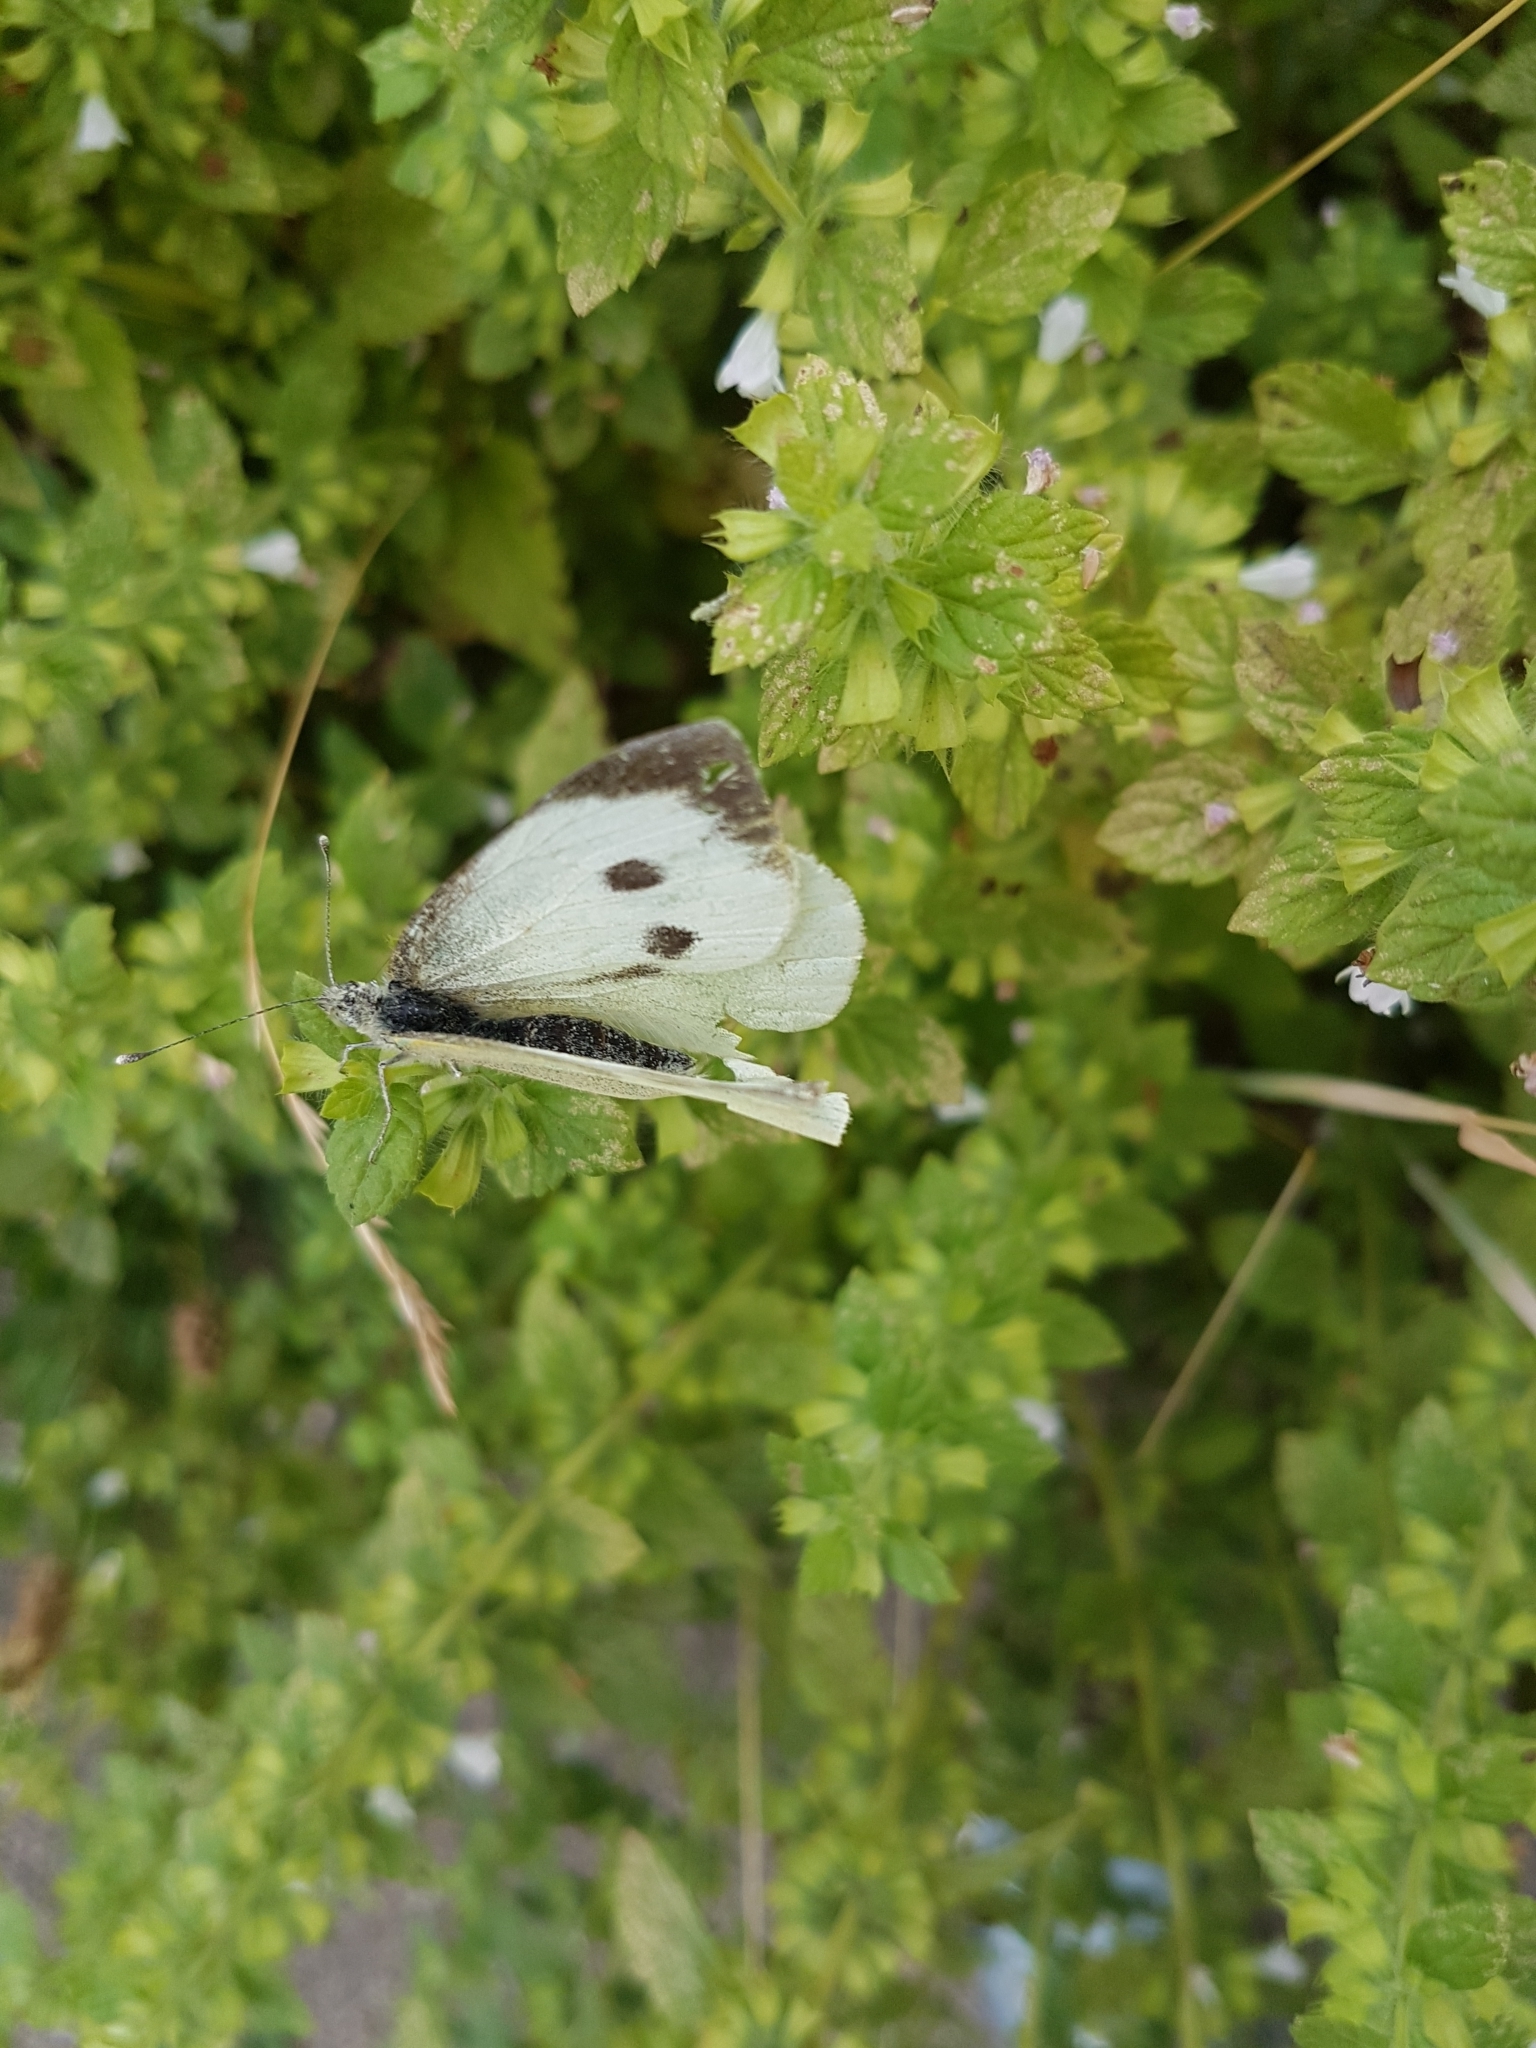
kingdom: Animalia
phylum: Arthropoda
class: Insecta
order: Lepidoptera
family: Pieridae
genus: Pieris
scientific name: Pieris brassicae
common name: Large white
